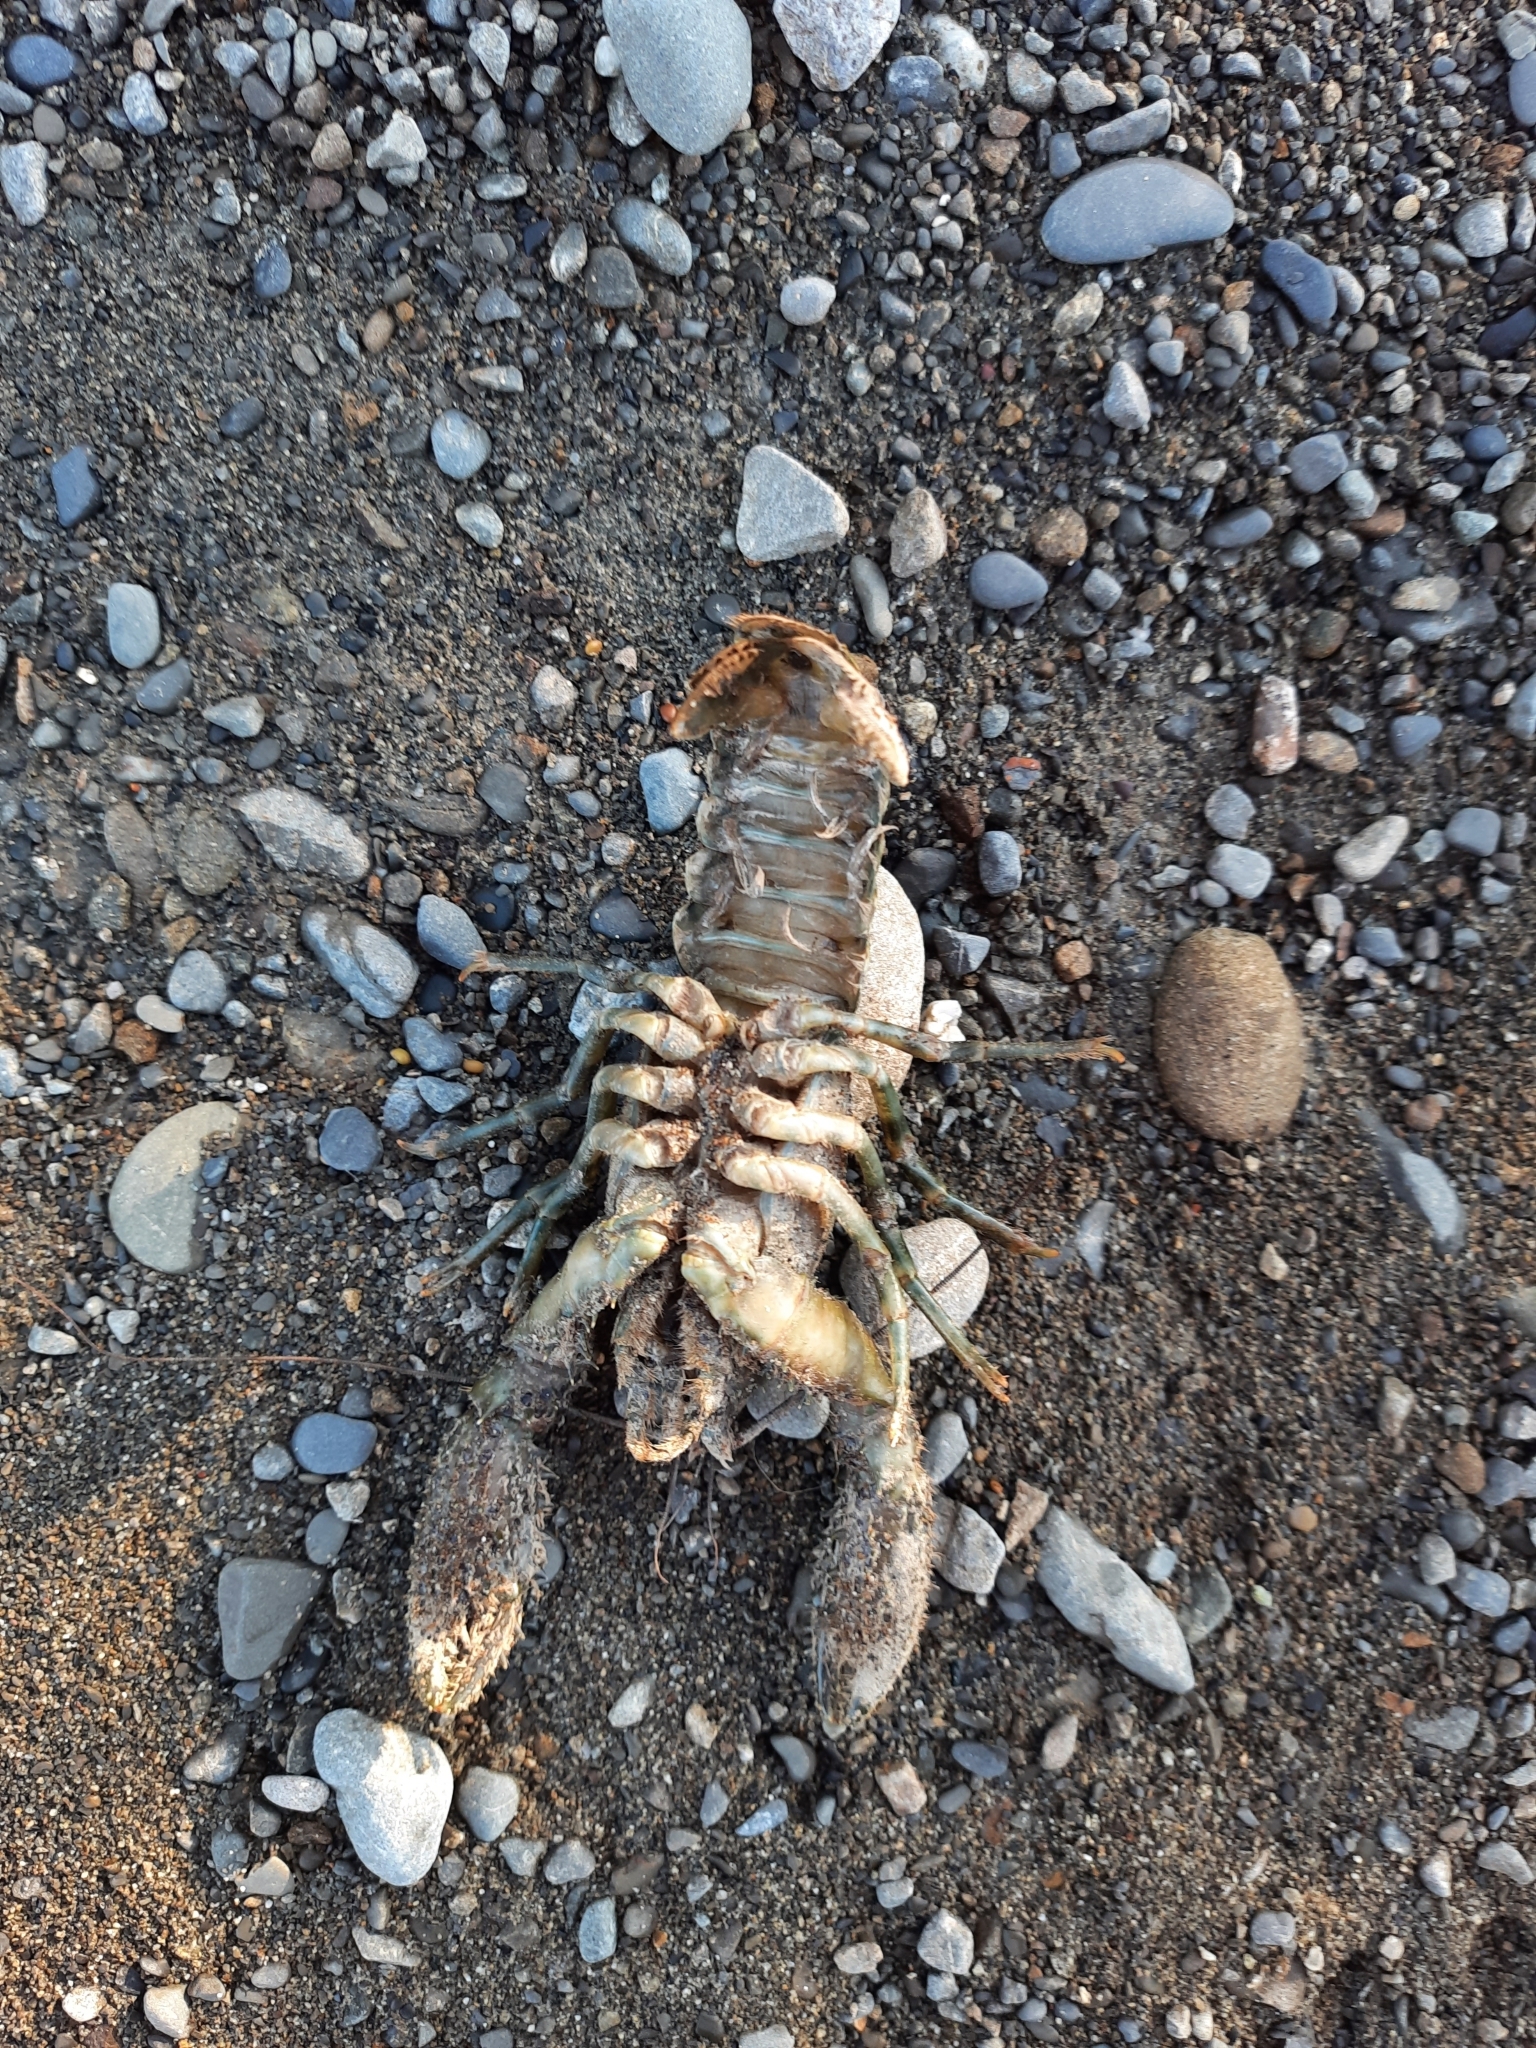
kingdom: Animalia
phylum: Arthropoda
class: Malacostraca
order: Decapoda
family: Parastacidae
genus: Paranephrops
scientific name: Paranephrops zealandicus
